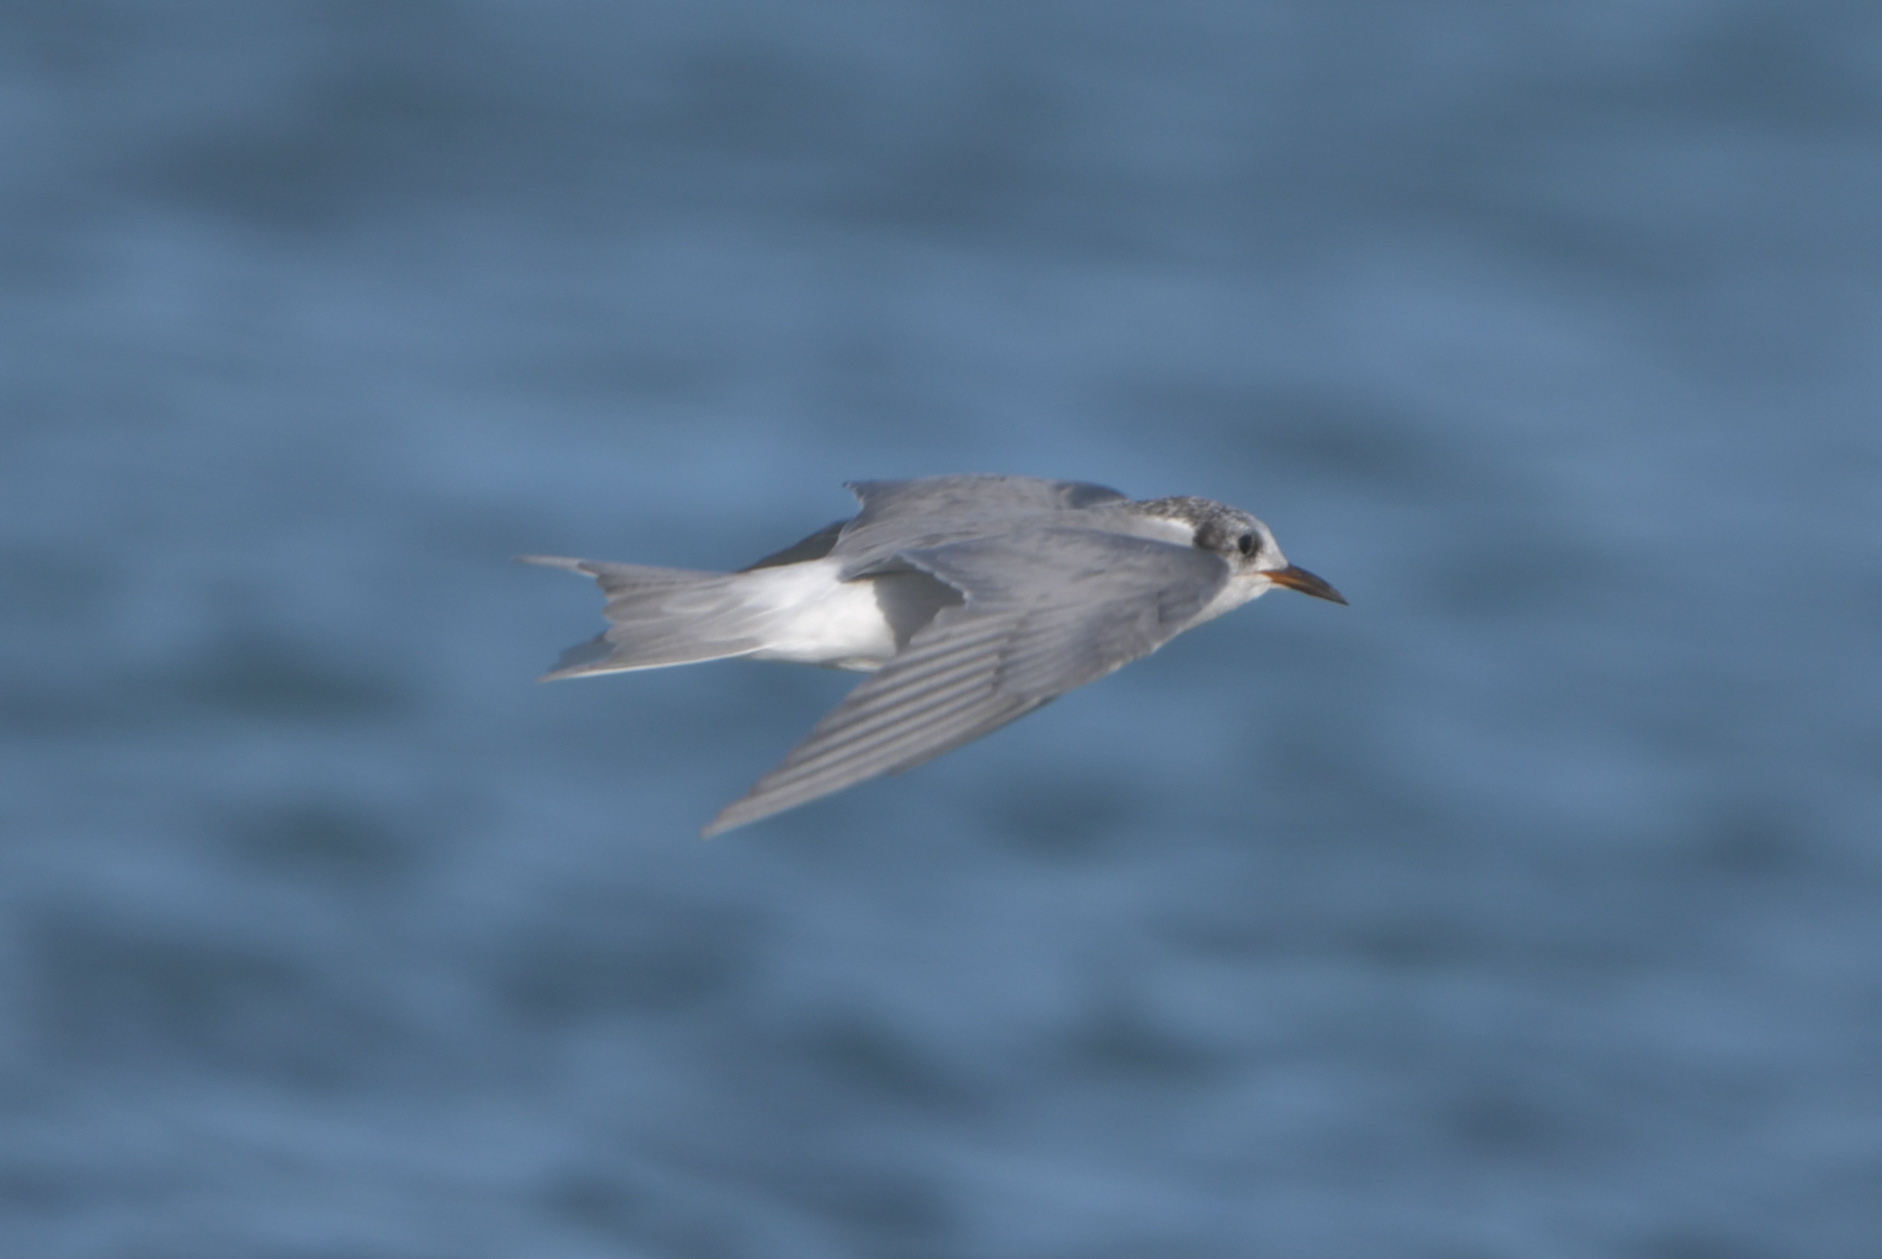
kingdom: Animalia
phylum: Chordata
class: Aves
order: Charadriiformes
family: Laridae
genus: Chlidonias
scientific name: Chlidonias albostriatus
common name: Black-fronted tern
